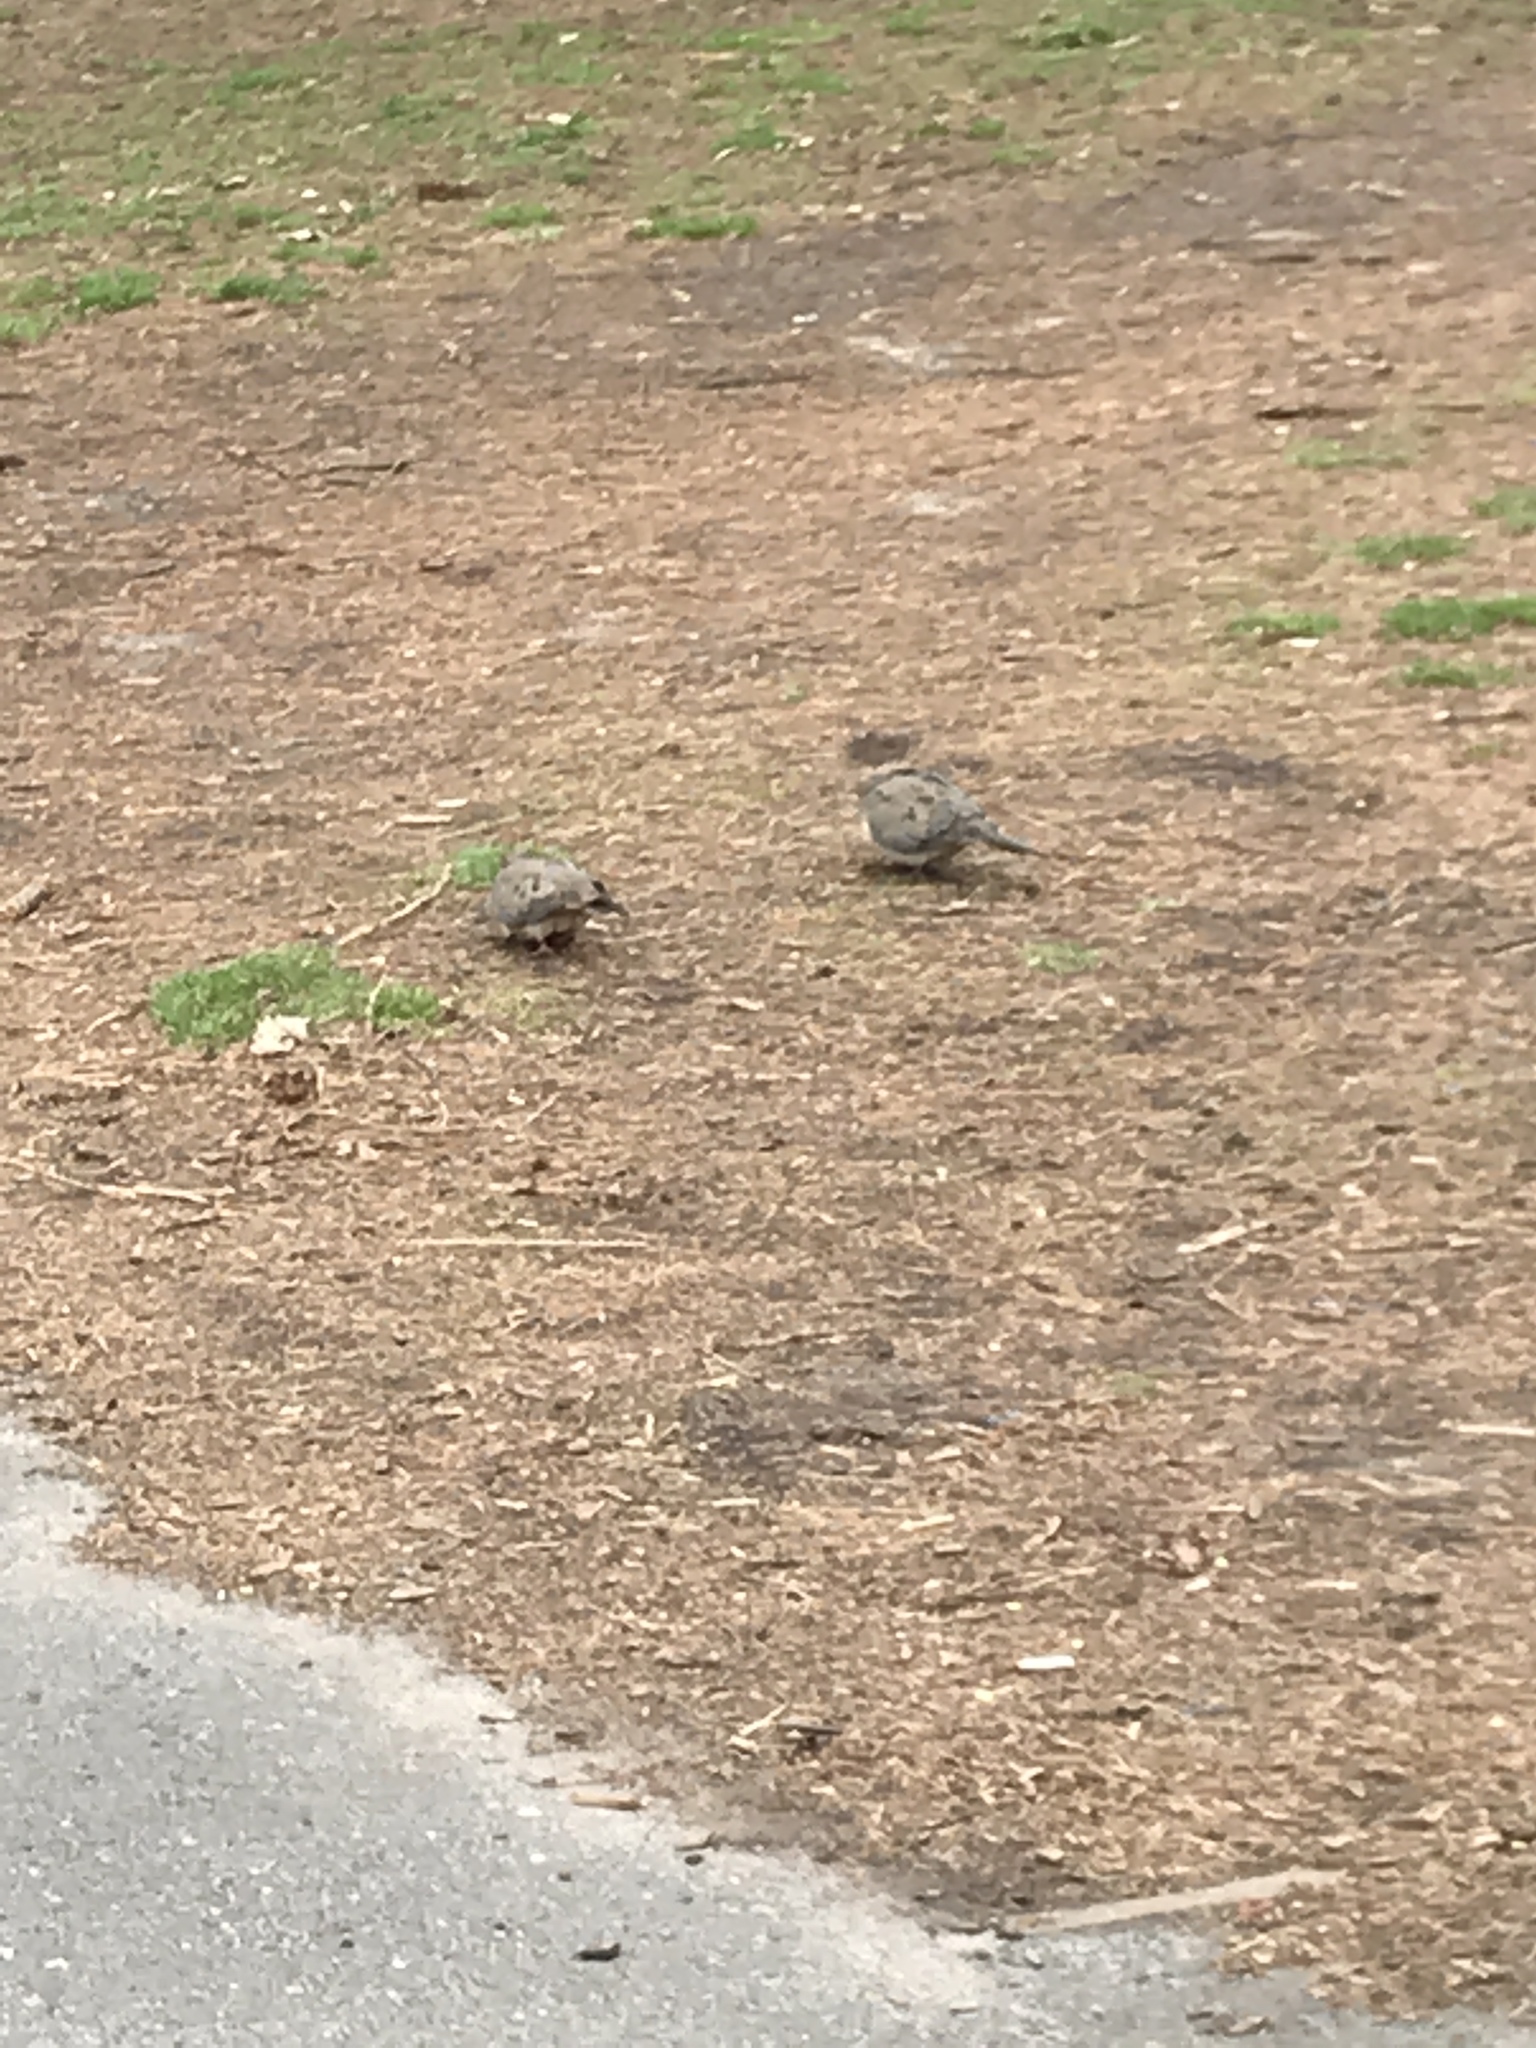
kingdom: Animalia
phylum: Chordata
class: Aves
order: Columbiformes
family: Columbidae
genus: Zenaida
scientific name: Zenaida macroura
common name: Mourning dove
